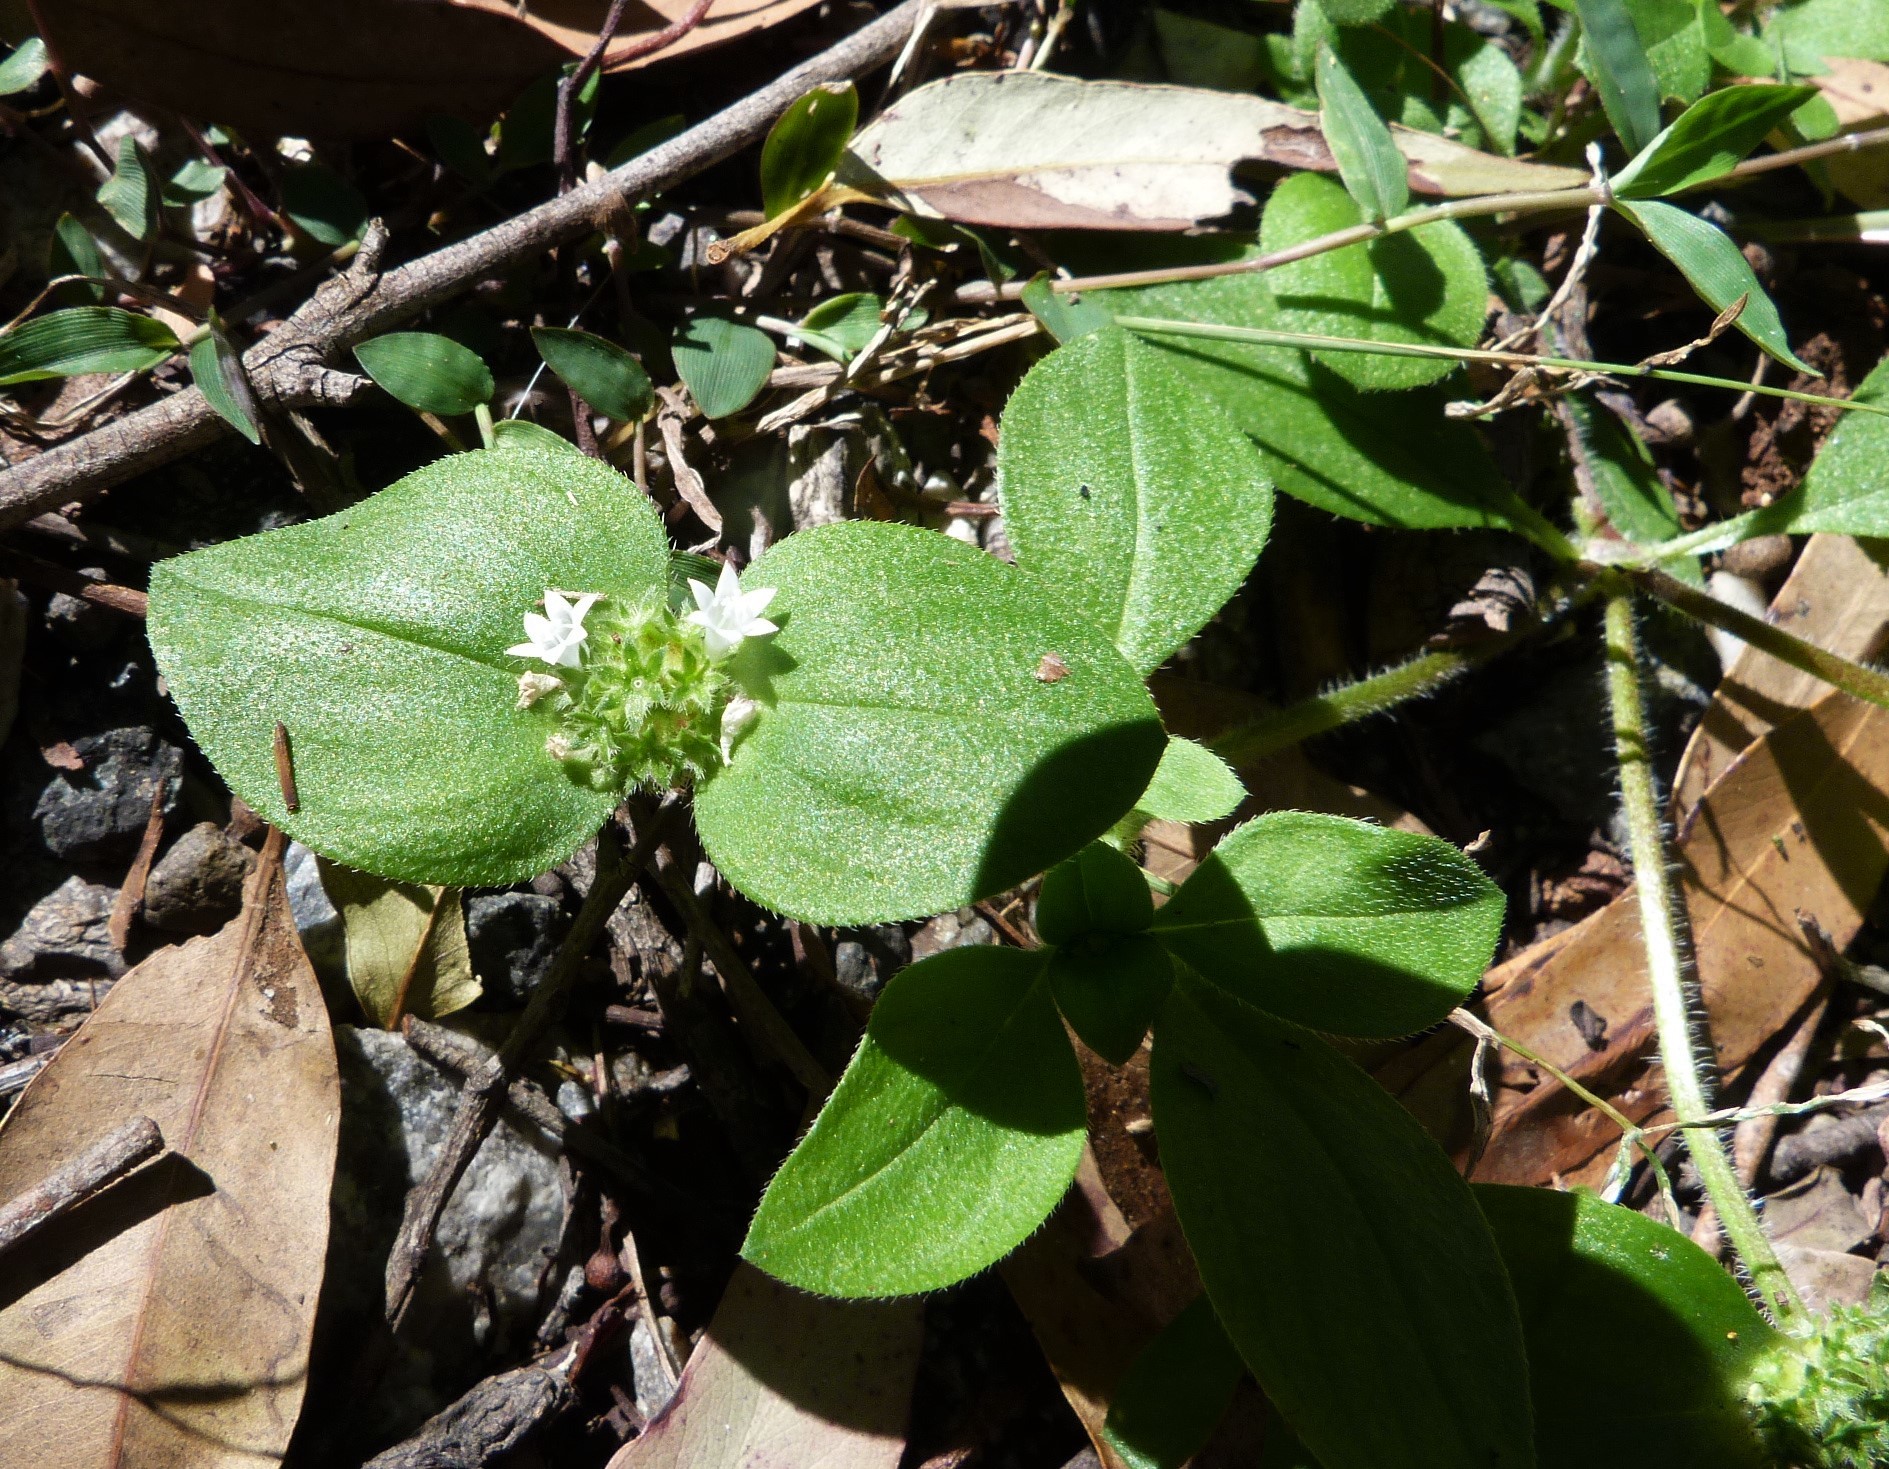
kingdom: Plantae
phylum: Tracheophyta
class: Magnoliopsida
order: Gentianales
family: Rubiaceae
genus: Richardia
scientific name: Richardia brasiliensis
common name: Tropical mexican clover
